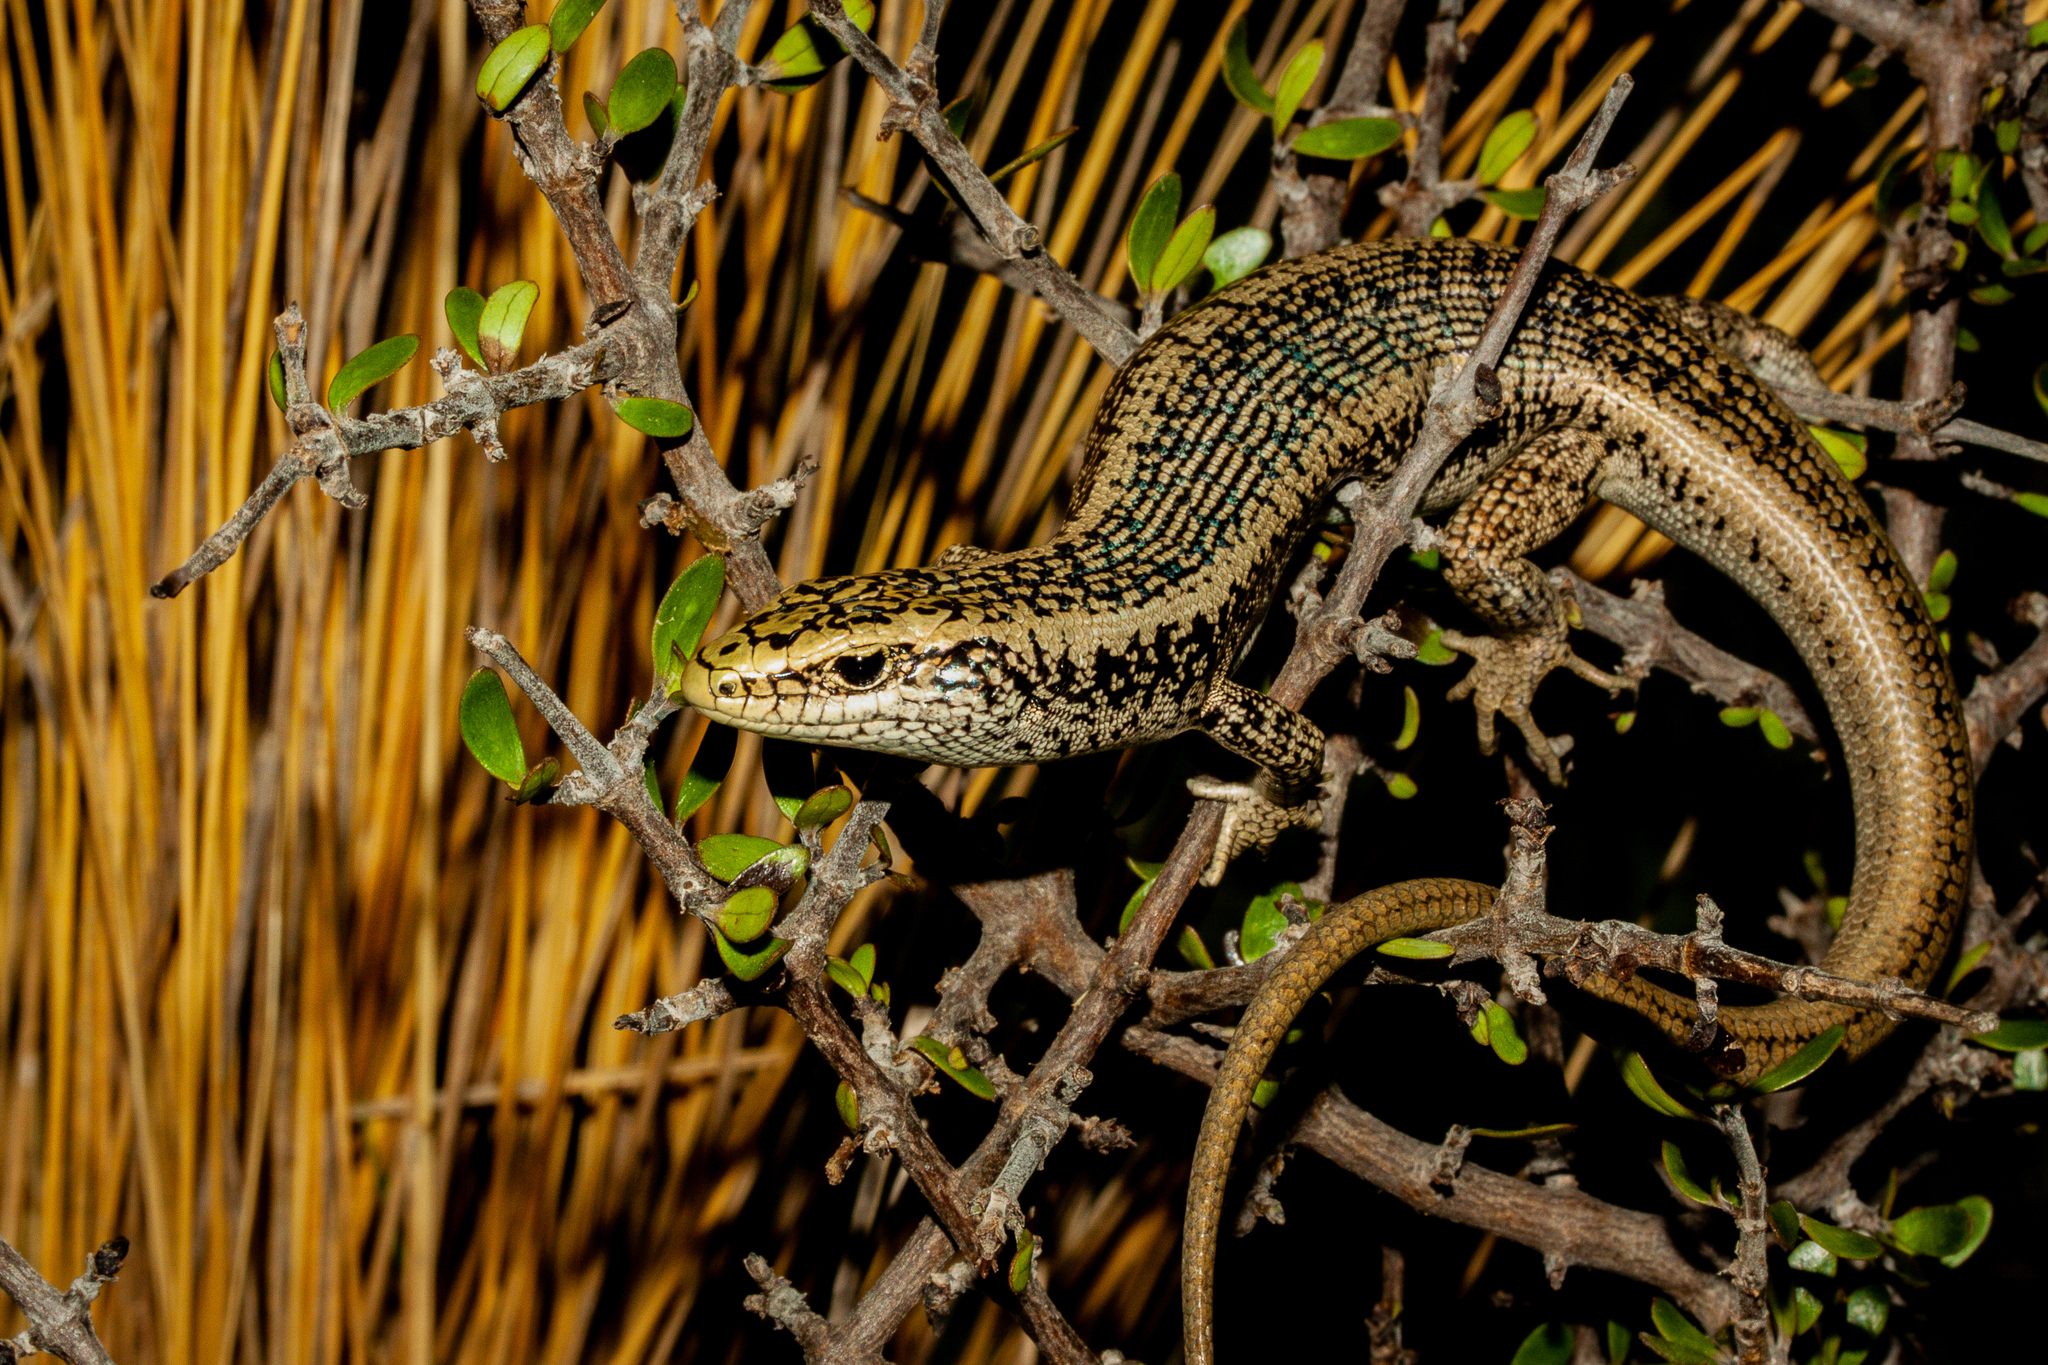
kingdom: Animalia
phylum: Chordata
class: Squamata
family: Scincidae
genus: Oligosoma
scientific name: Oligosoma waimatense
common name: Scree skink
